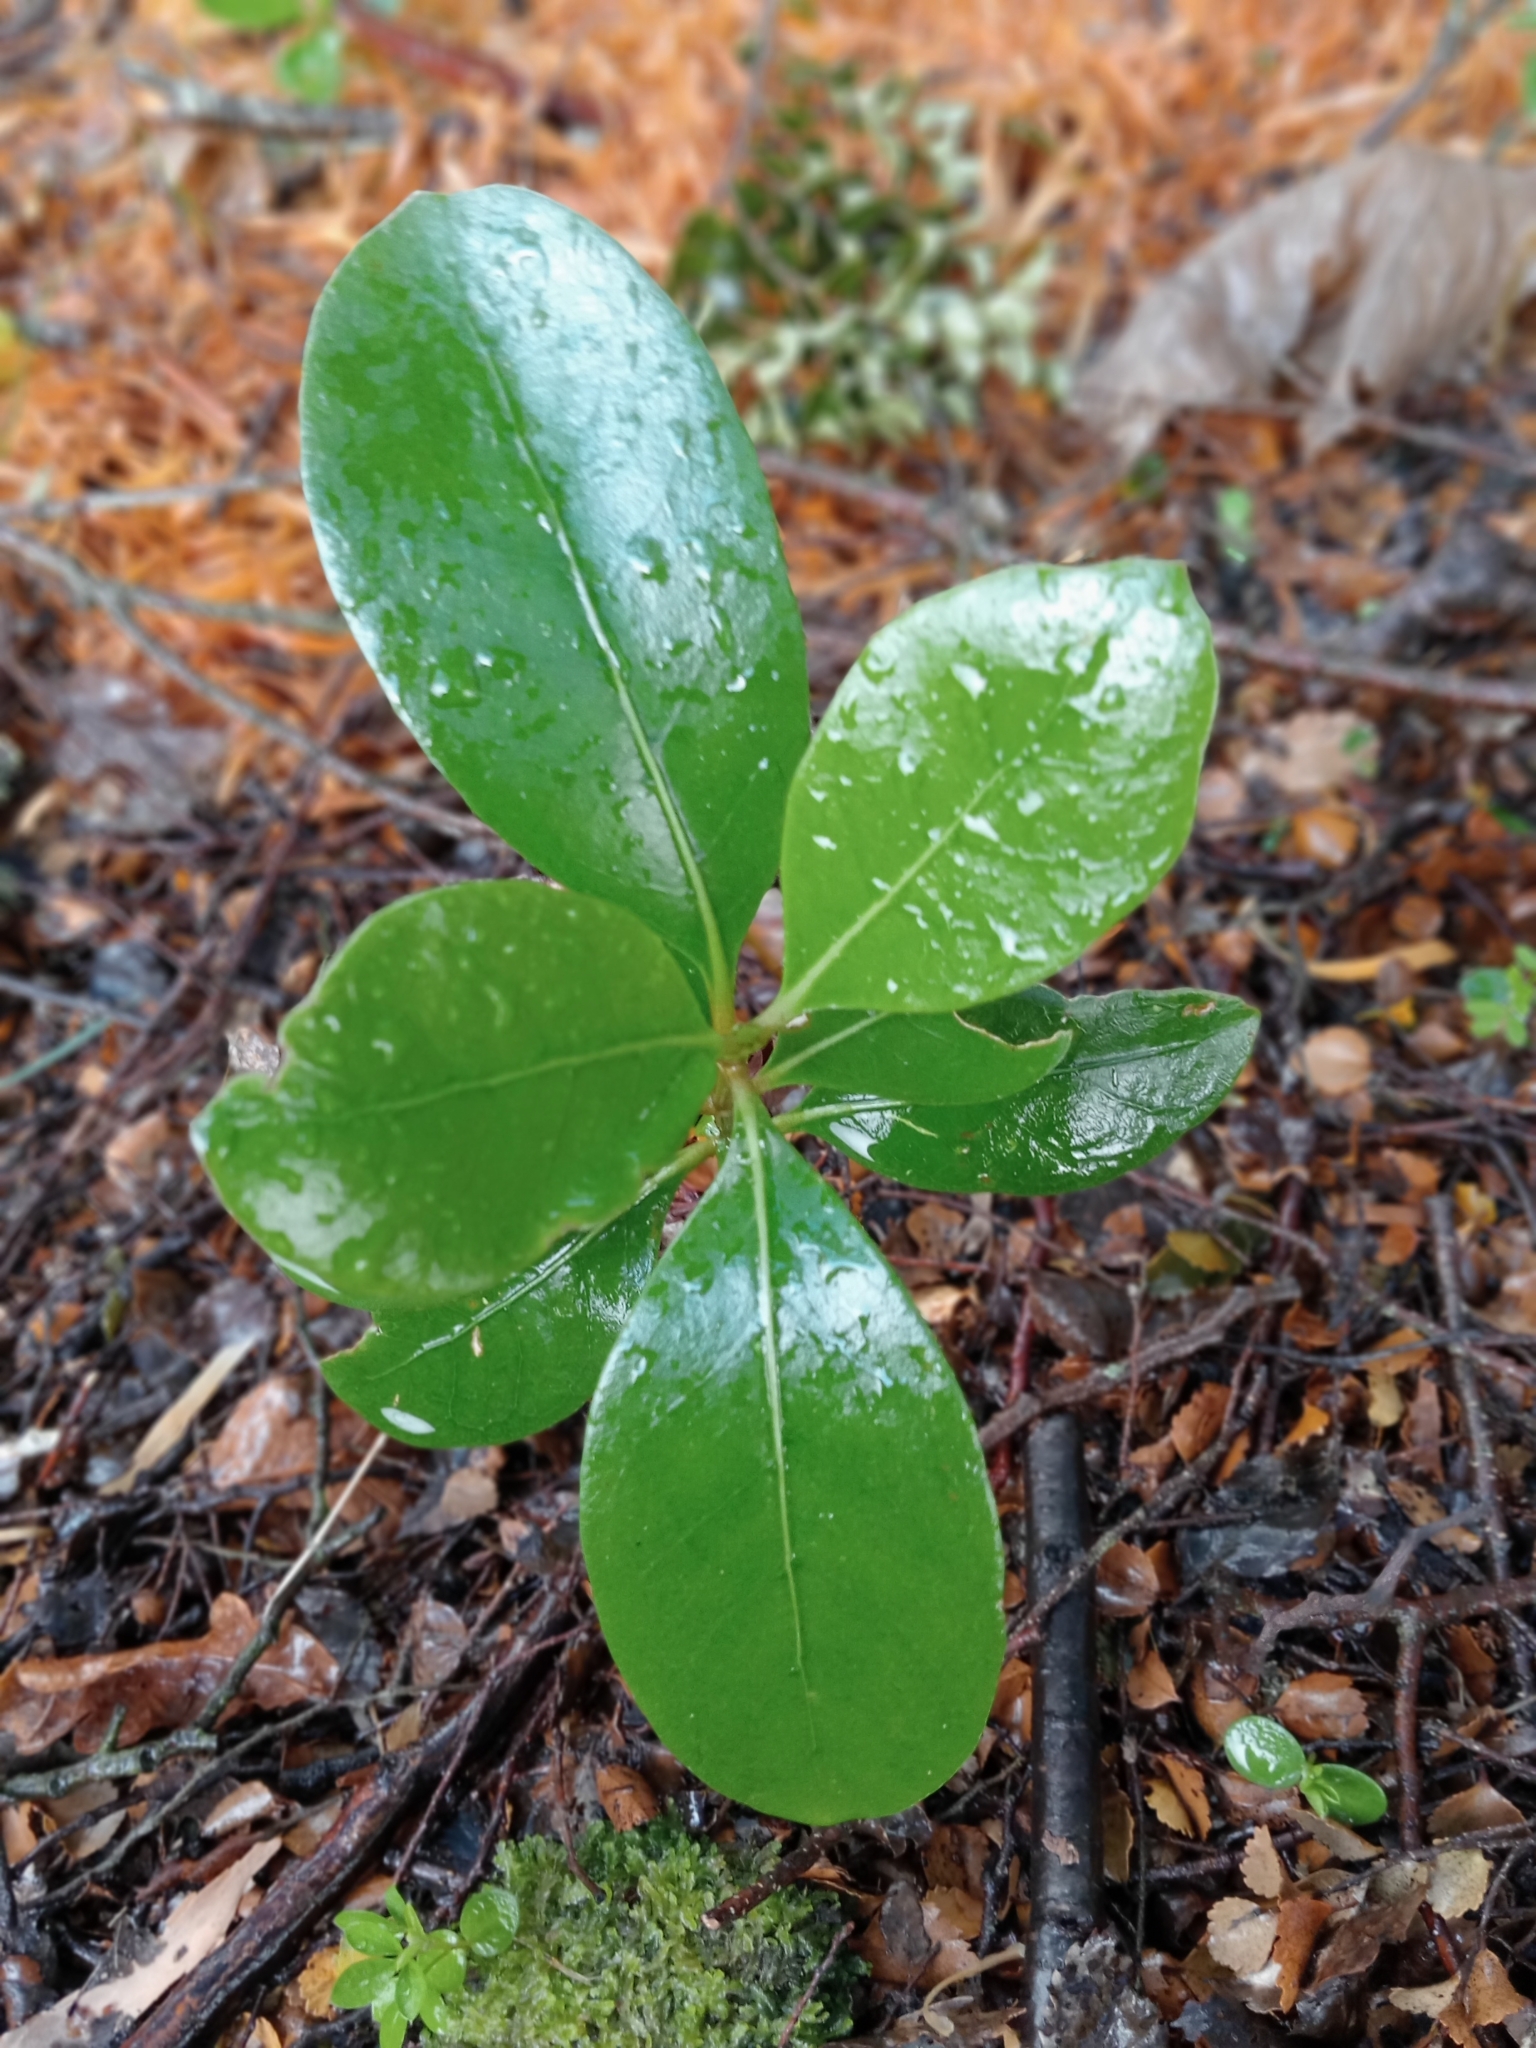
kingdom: Plantae
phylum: Tracheophyta
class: Magnoliopsida
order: Gentianales
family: Rubiaceae
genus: Coprosma
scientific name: Coprosma lucida
